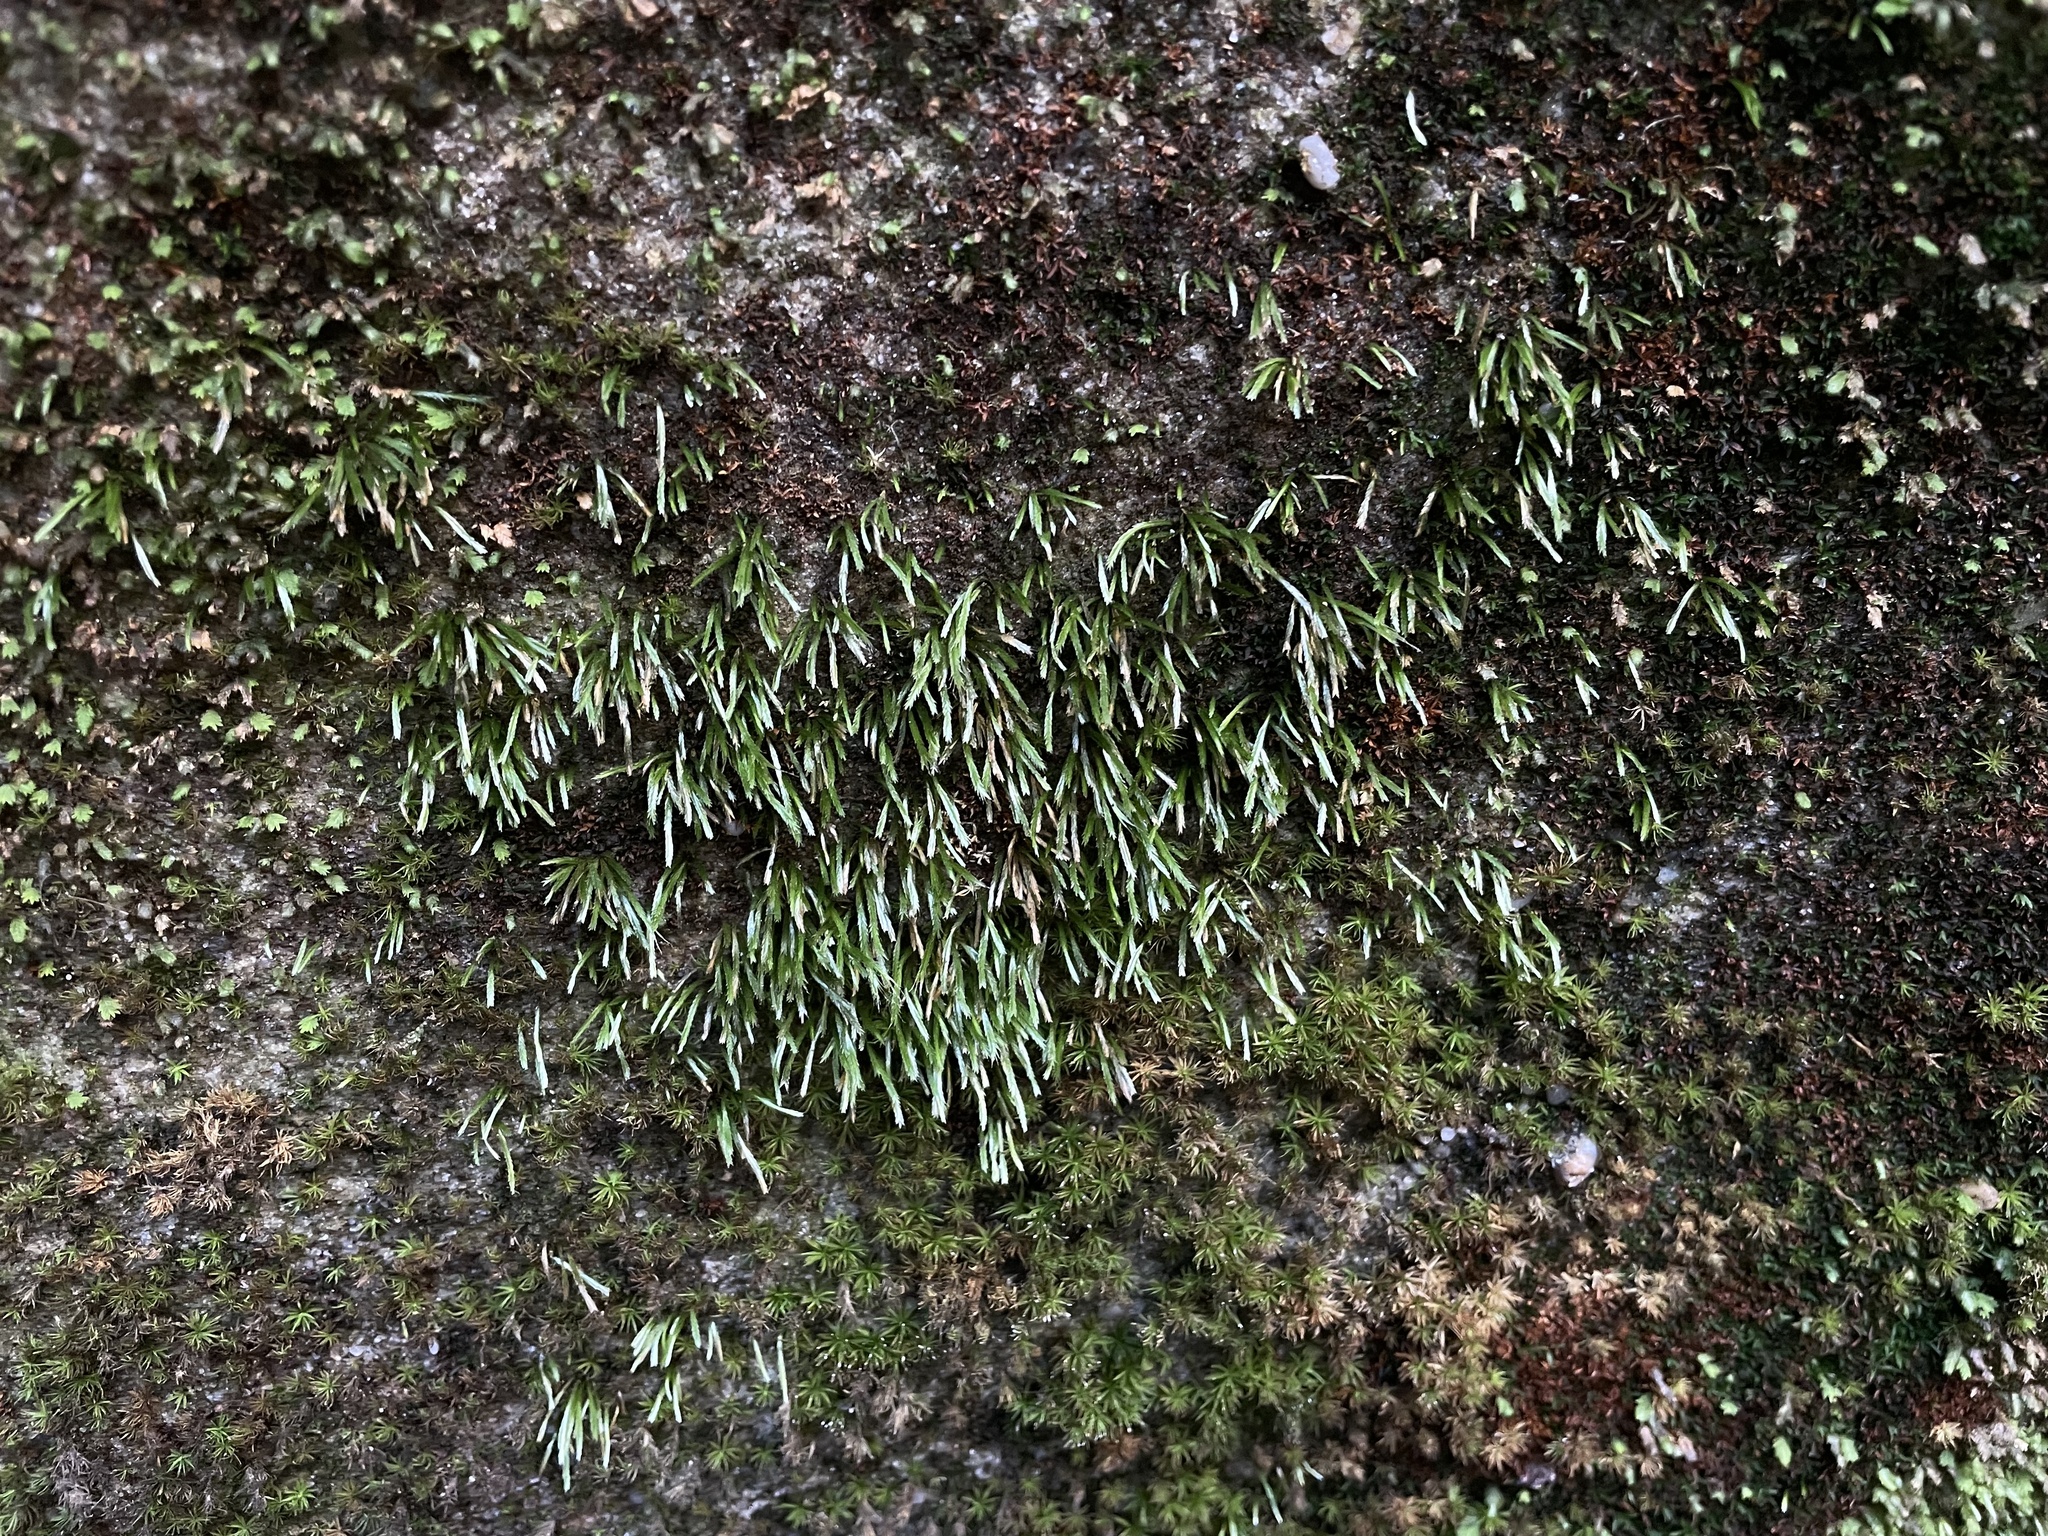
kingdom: Plantae
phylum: Bryophyta
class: Bryopsida
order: Bryoxiphiales
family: Bryoxiphiaceae
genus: Bryoxiphium
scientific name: Bryoxiphium norvegicum
